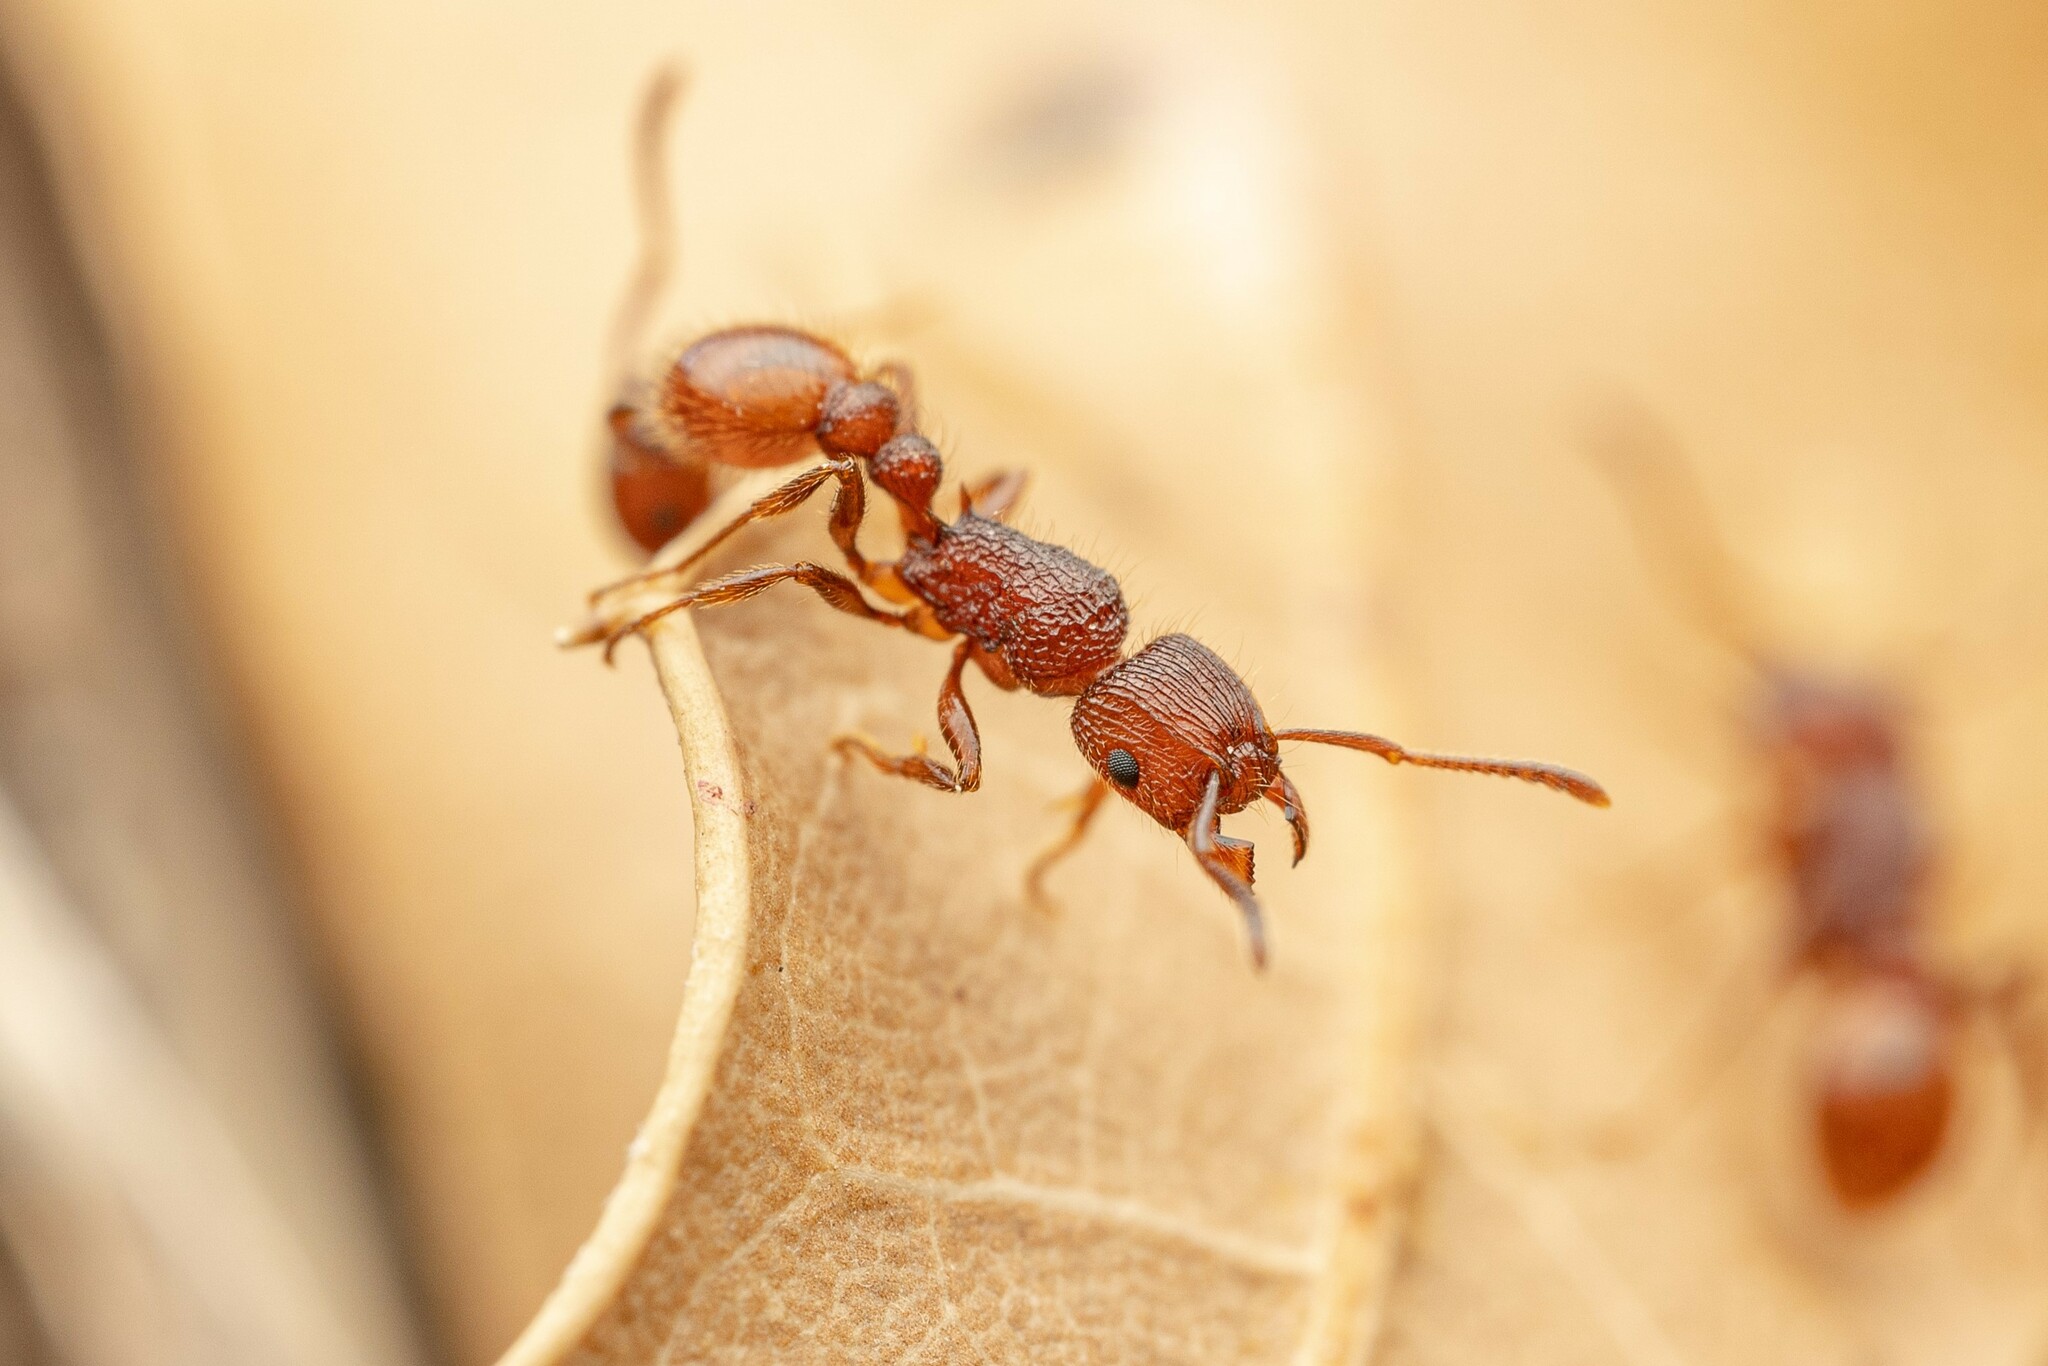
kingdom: Animalia
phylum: Arthropoda
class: Insecta
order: Hymenoptera
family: Formicidae
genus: Tetramorium
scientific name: Tetramorium spinosum
